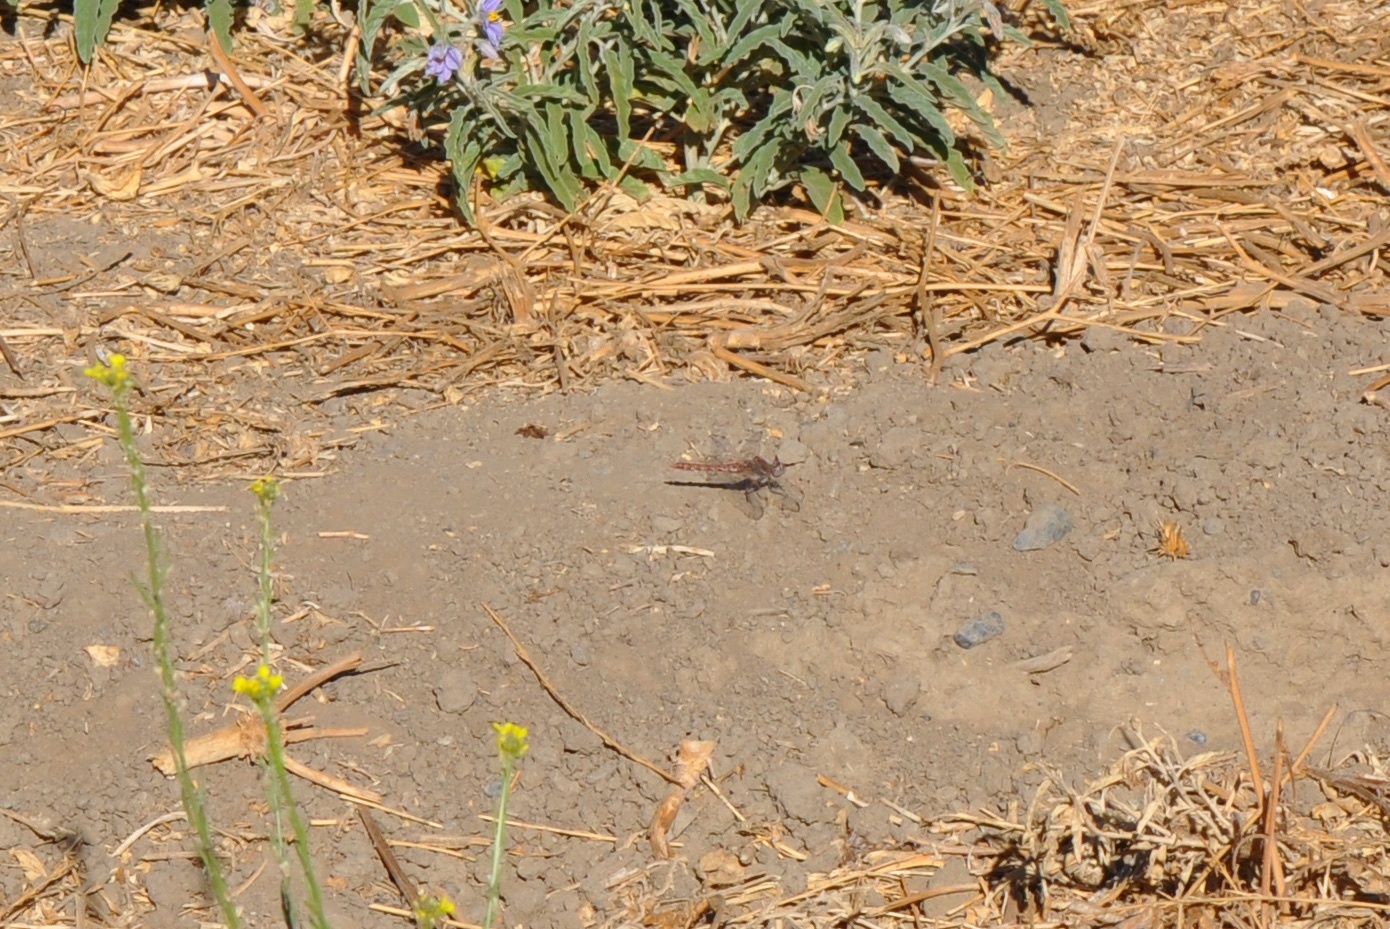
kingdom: Animalia
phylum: Arthropoda
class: Insecta
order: Odonata
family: Libellulidae
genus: Sympetrum
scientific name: Sympetrum corruptum
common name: Variegated meadowhawk
